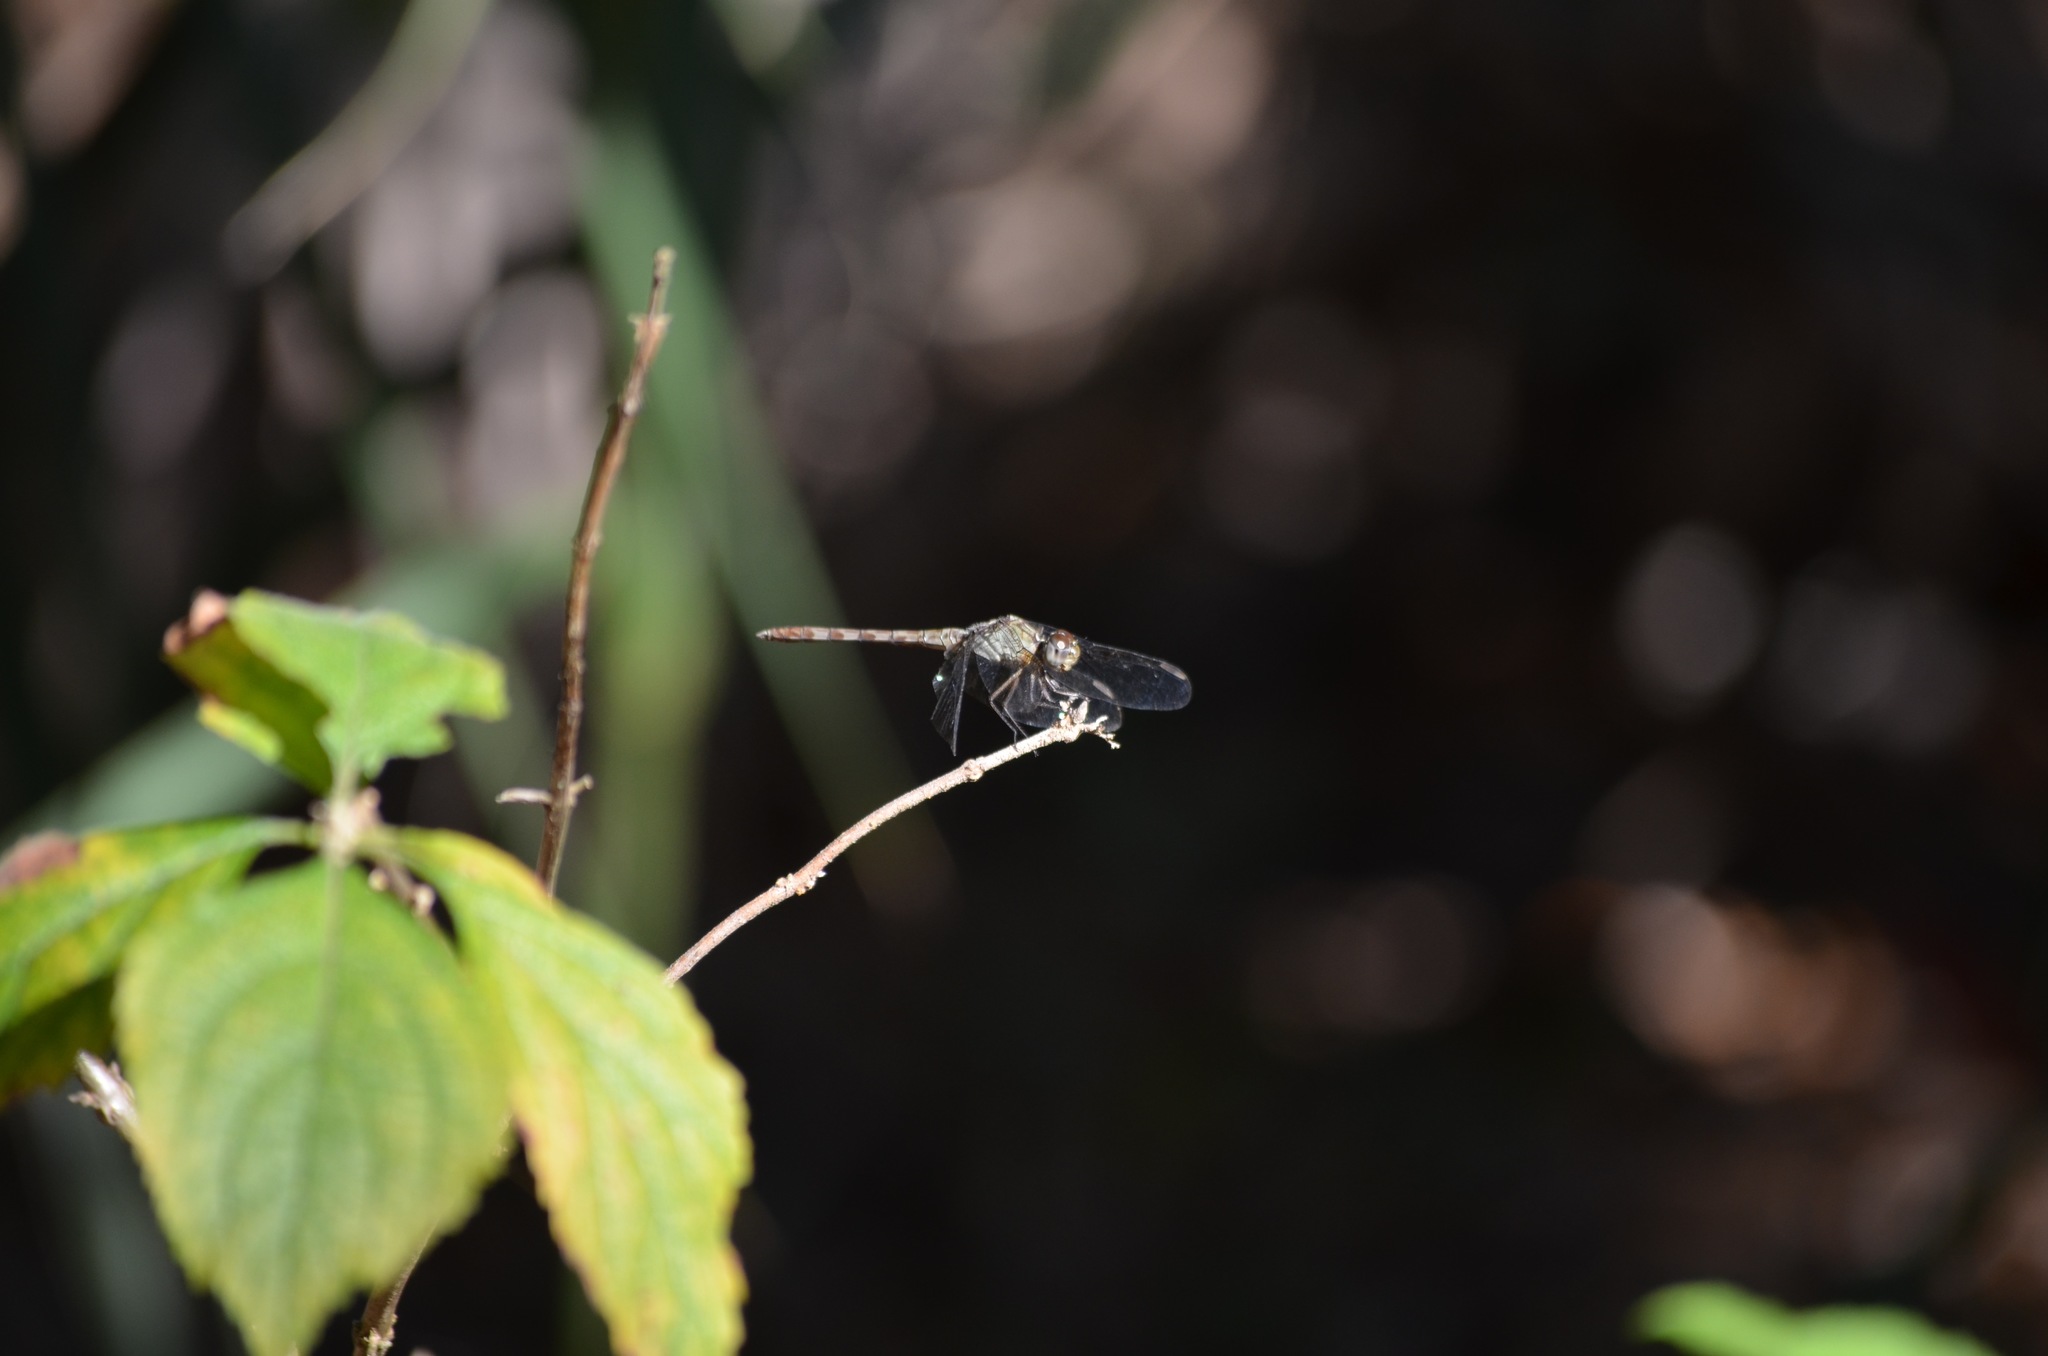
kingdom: Animalia
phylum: Arthropoda
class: Insecta
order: Odonata
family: Libellulidae
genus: Erythrodiplax
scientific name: Erythrodiplax umbrata
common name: Band-winged dragonlet
